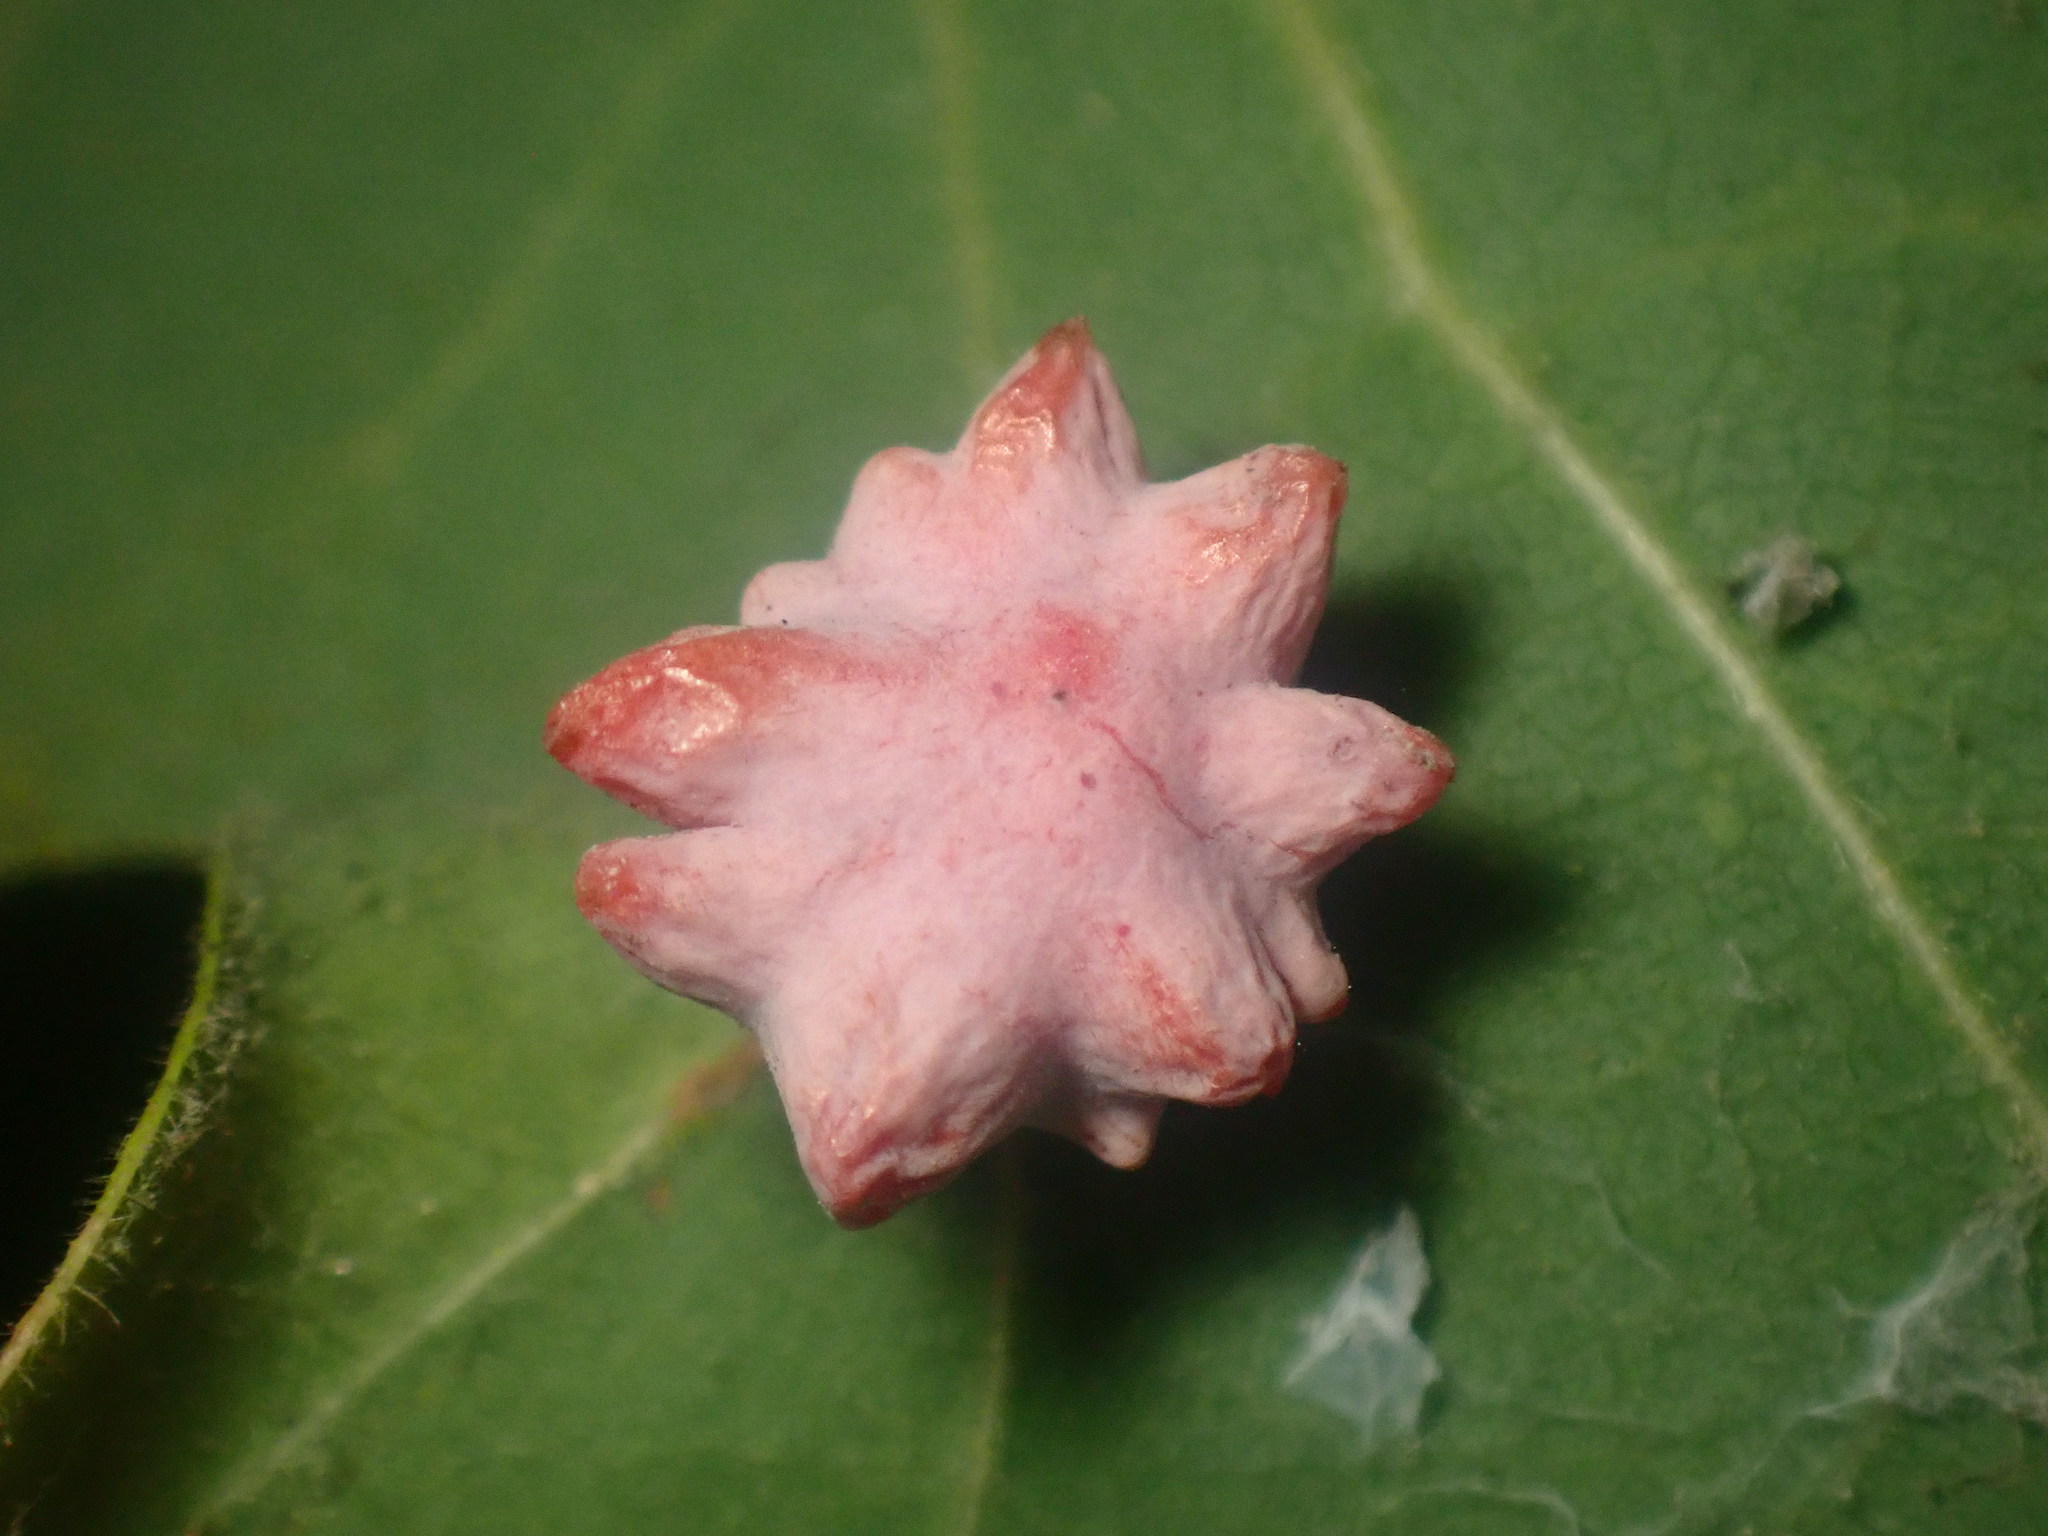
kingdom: Animalia
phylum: Arthropoda
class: Insecta
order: Hymenoptera
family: Cynipidae
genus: Cynips
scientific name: Cynips douglasi
